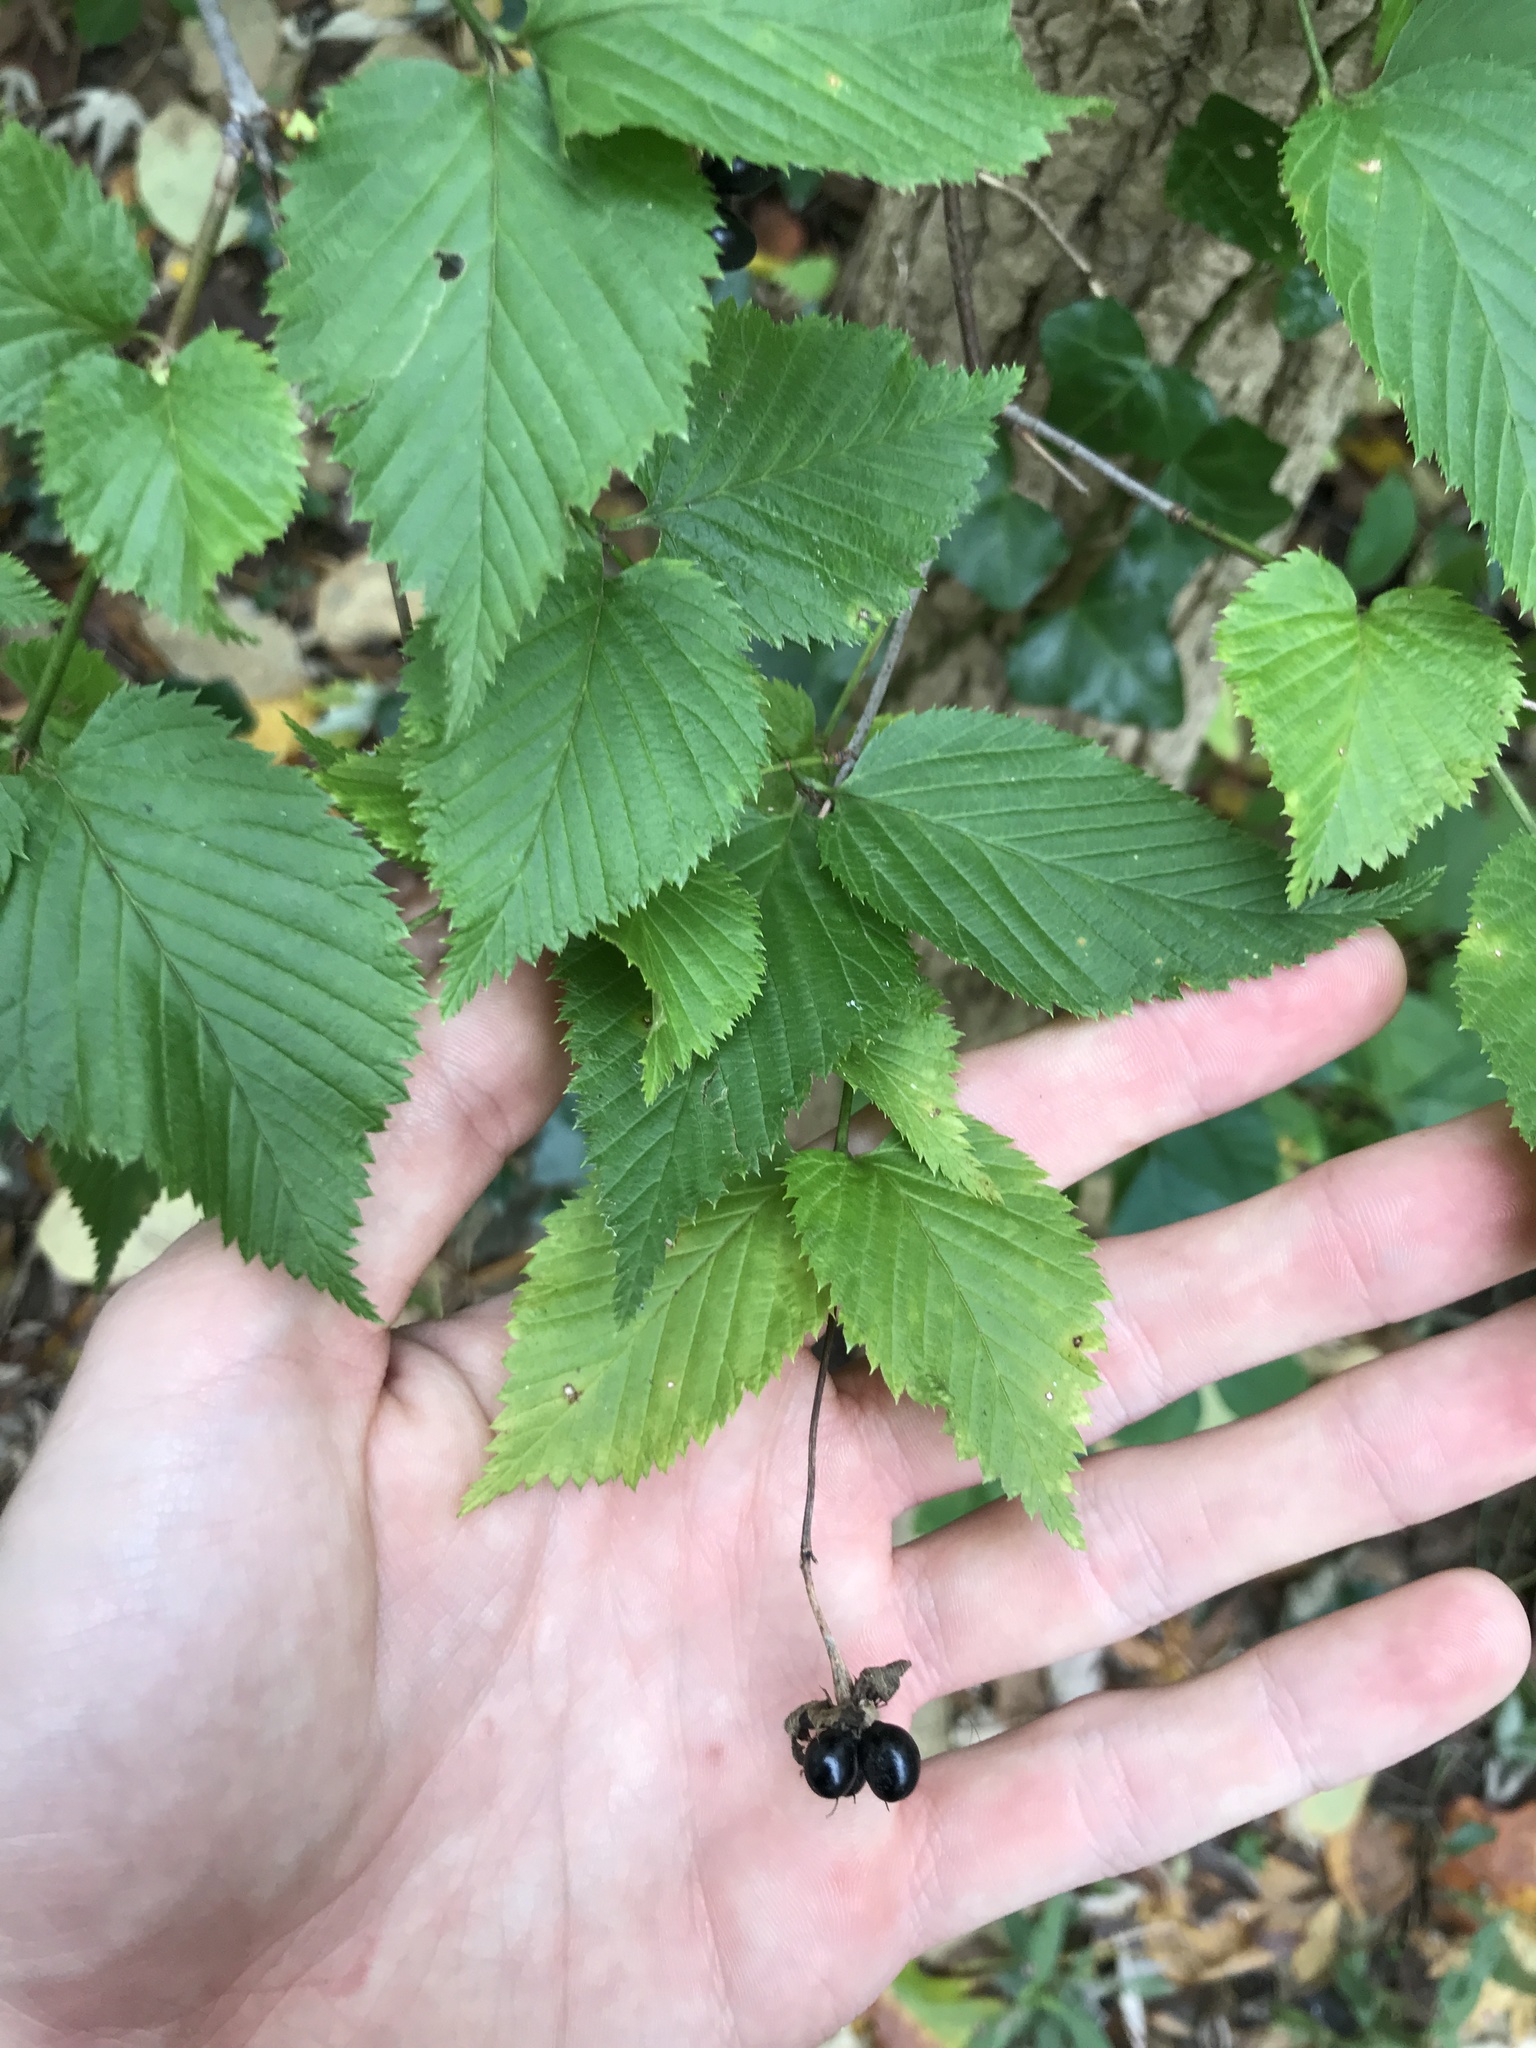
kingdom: Plantae
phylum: Tracheophyta
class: Magnoliopsida
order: Rosales
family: Rosaceae
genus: Rhodotypos
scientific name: Rhodotypos scandens
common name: Jetbead
